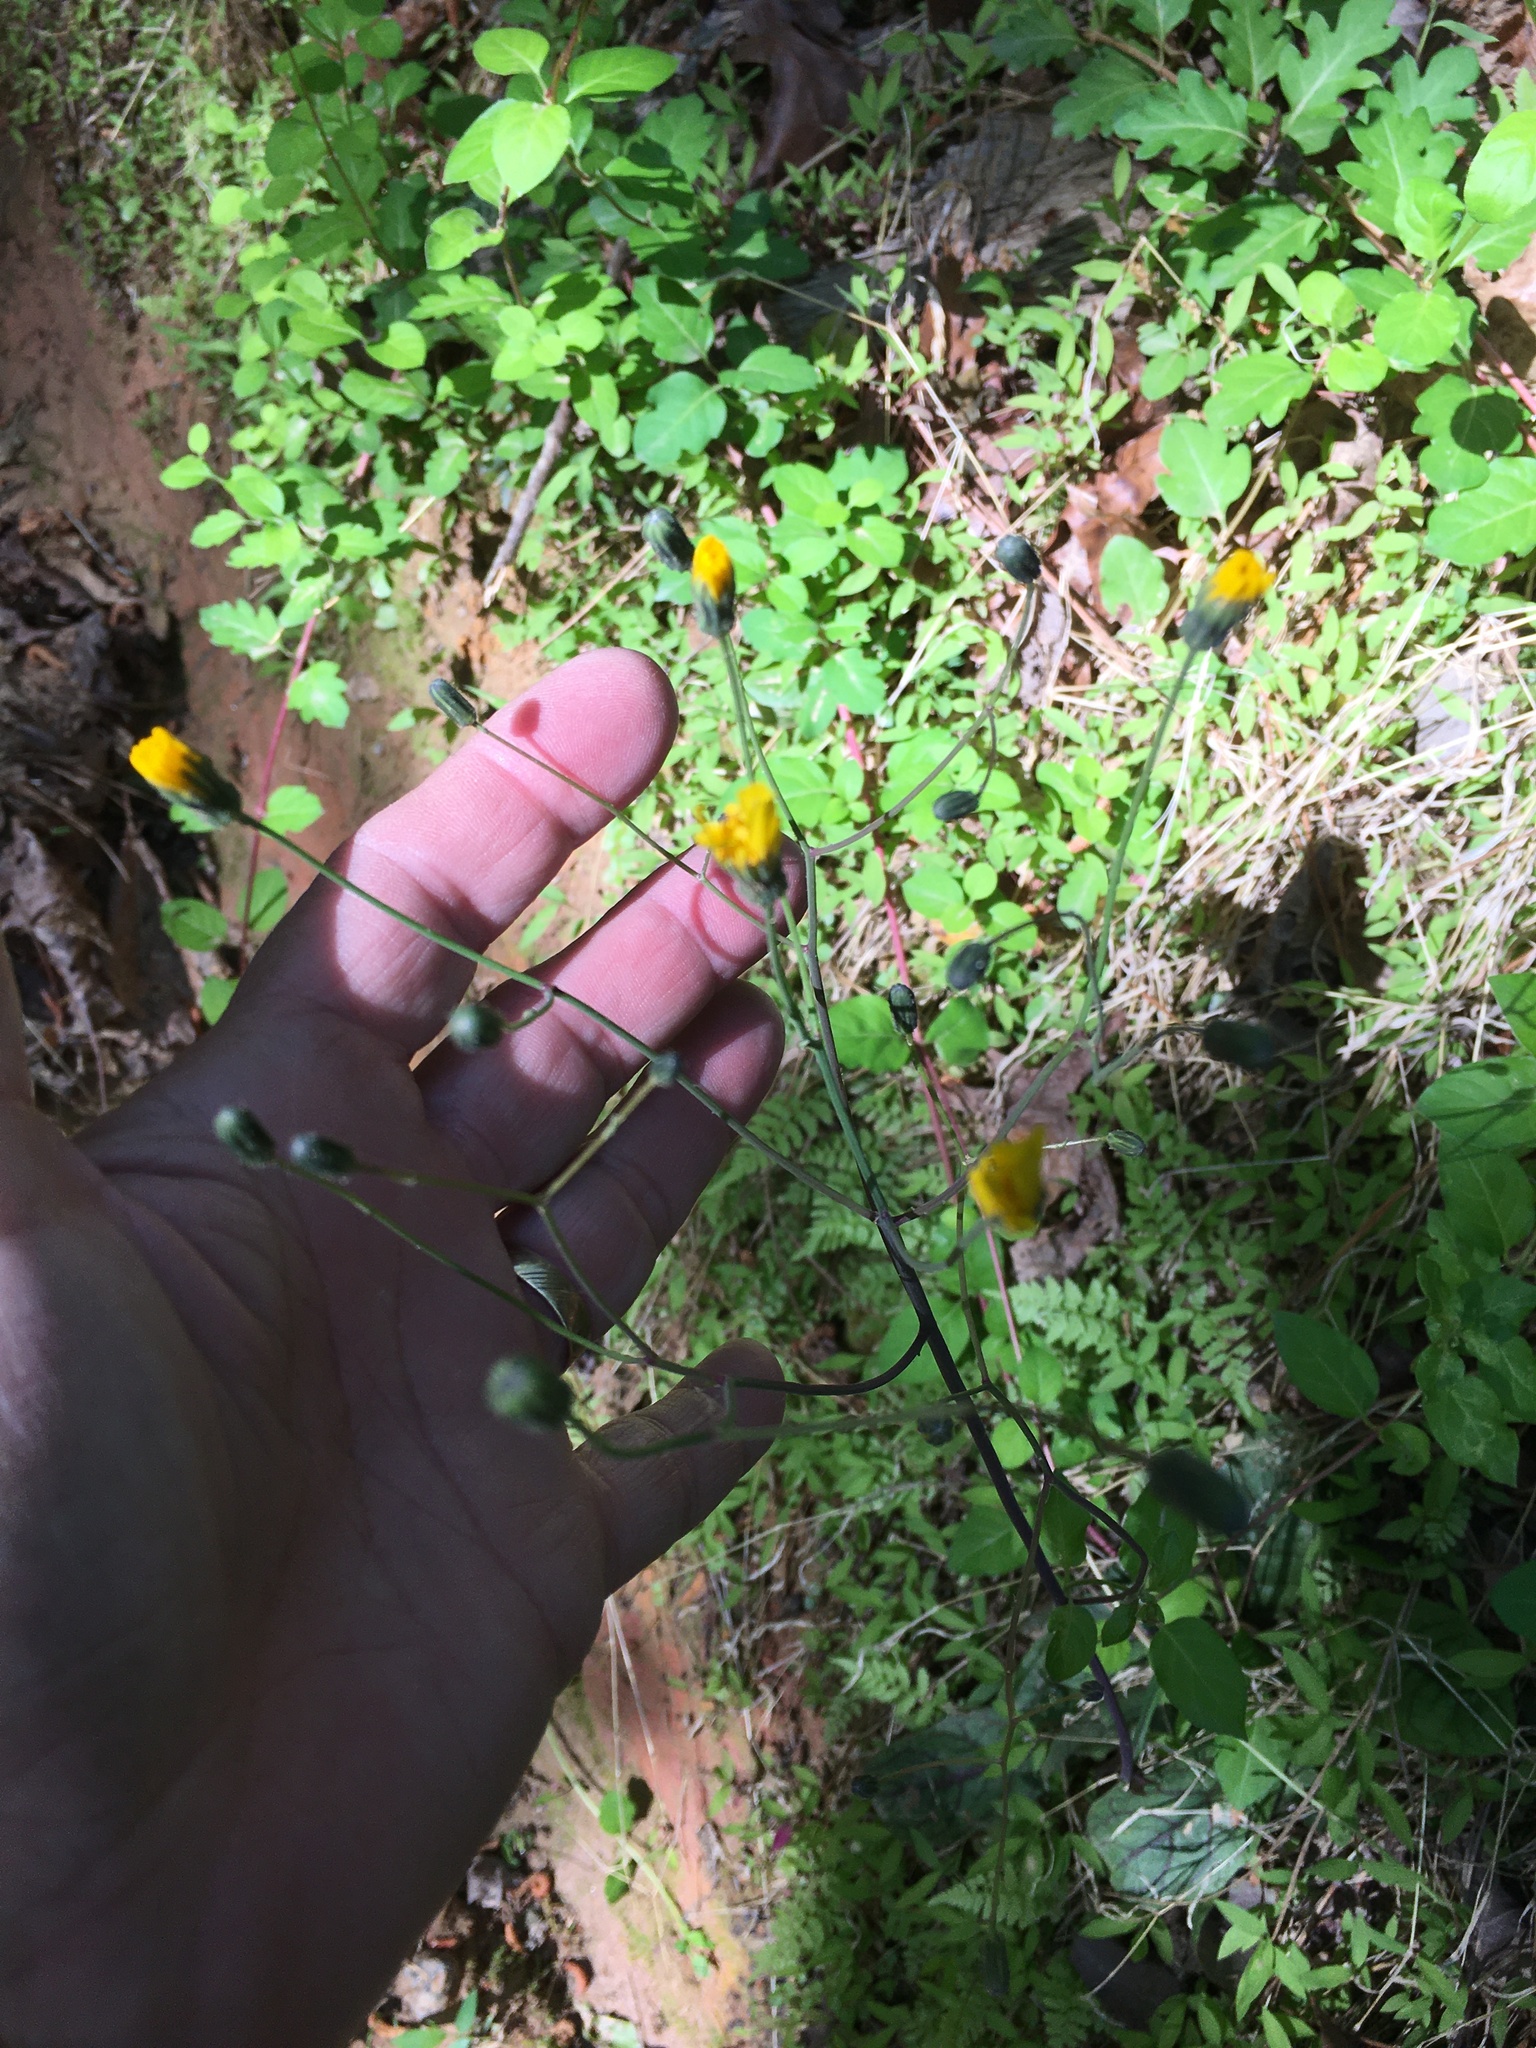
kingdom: Plantae
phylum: Tracheophyta
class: Magnoliopsida
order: Asterales
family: Asteraceae
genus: Hieracium
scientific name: Hieracium venosum
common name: Rattlesnake hawkweed
